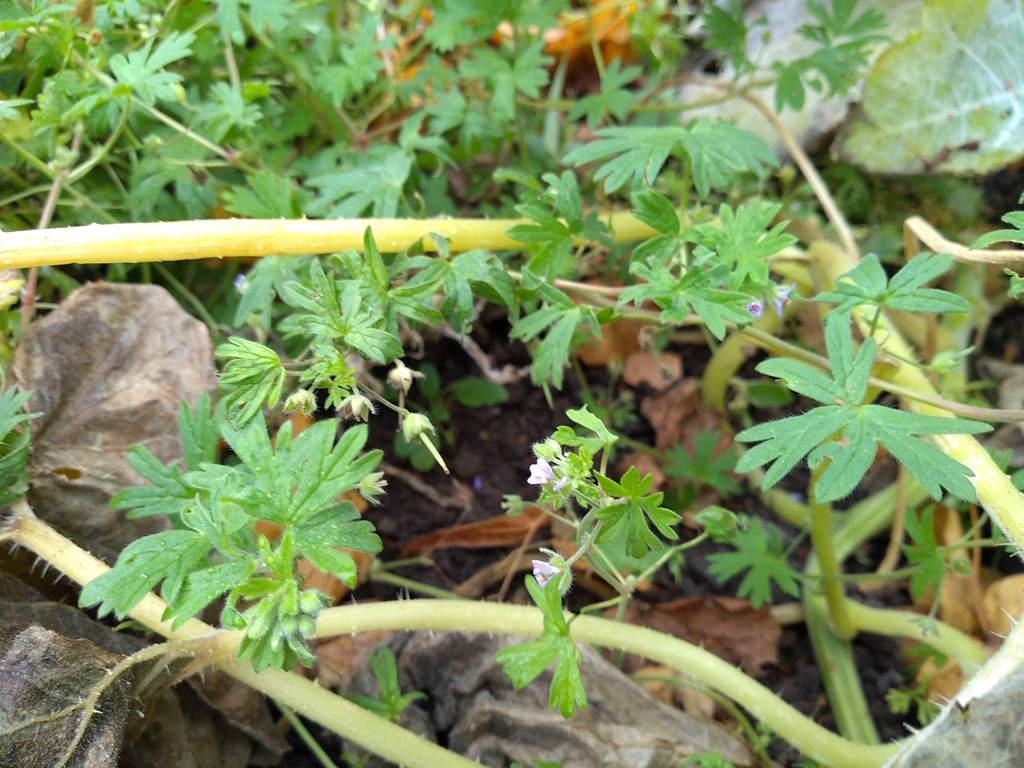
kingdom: Plantae
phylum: Tracheophyta
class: Magnoliopsida
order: Geraniales
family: Geraniaceae
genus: Geranium
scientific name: Geranium pusillum
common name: Small geranium
